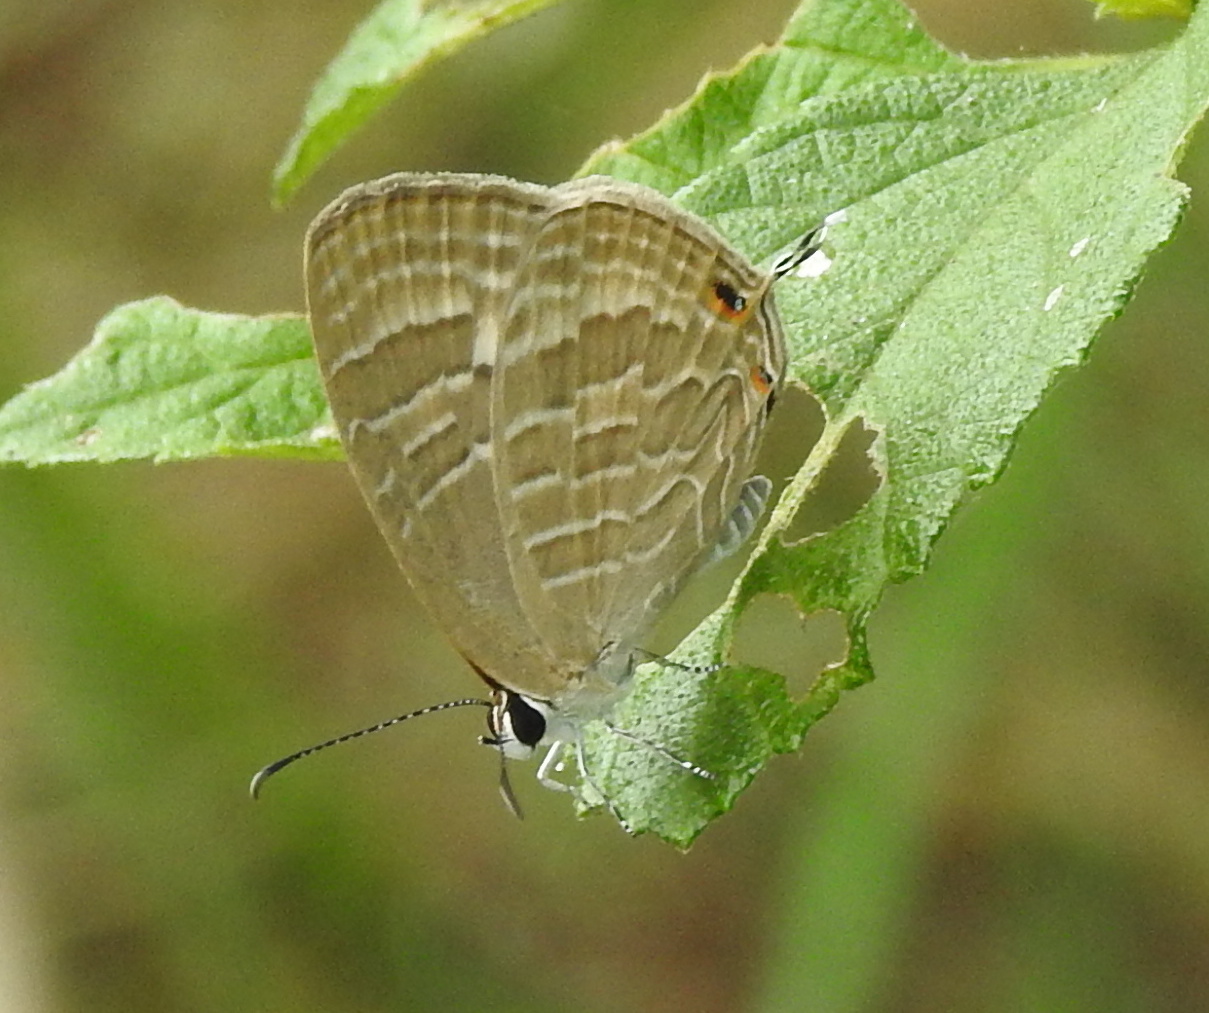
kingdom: Animalia
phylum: Arthropoda
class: Insecta
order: Lepidoptera
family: Lycaenidae
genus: Jamides
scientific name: Jamides celeno
